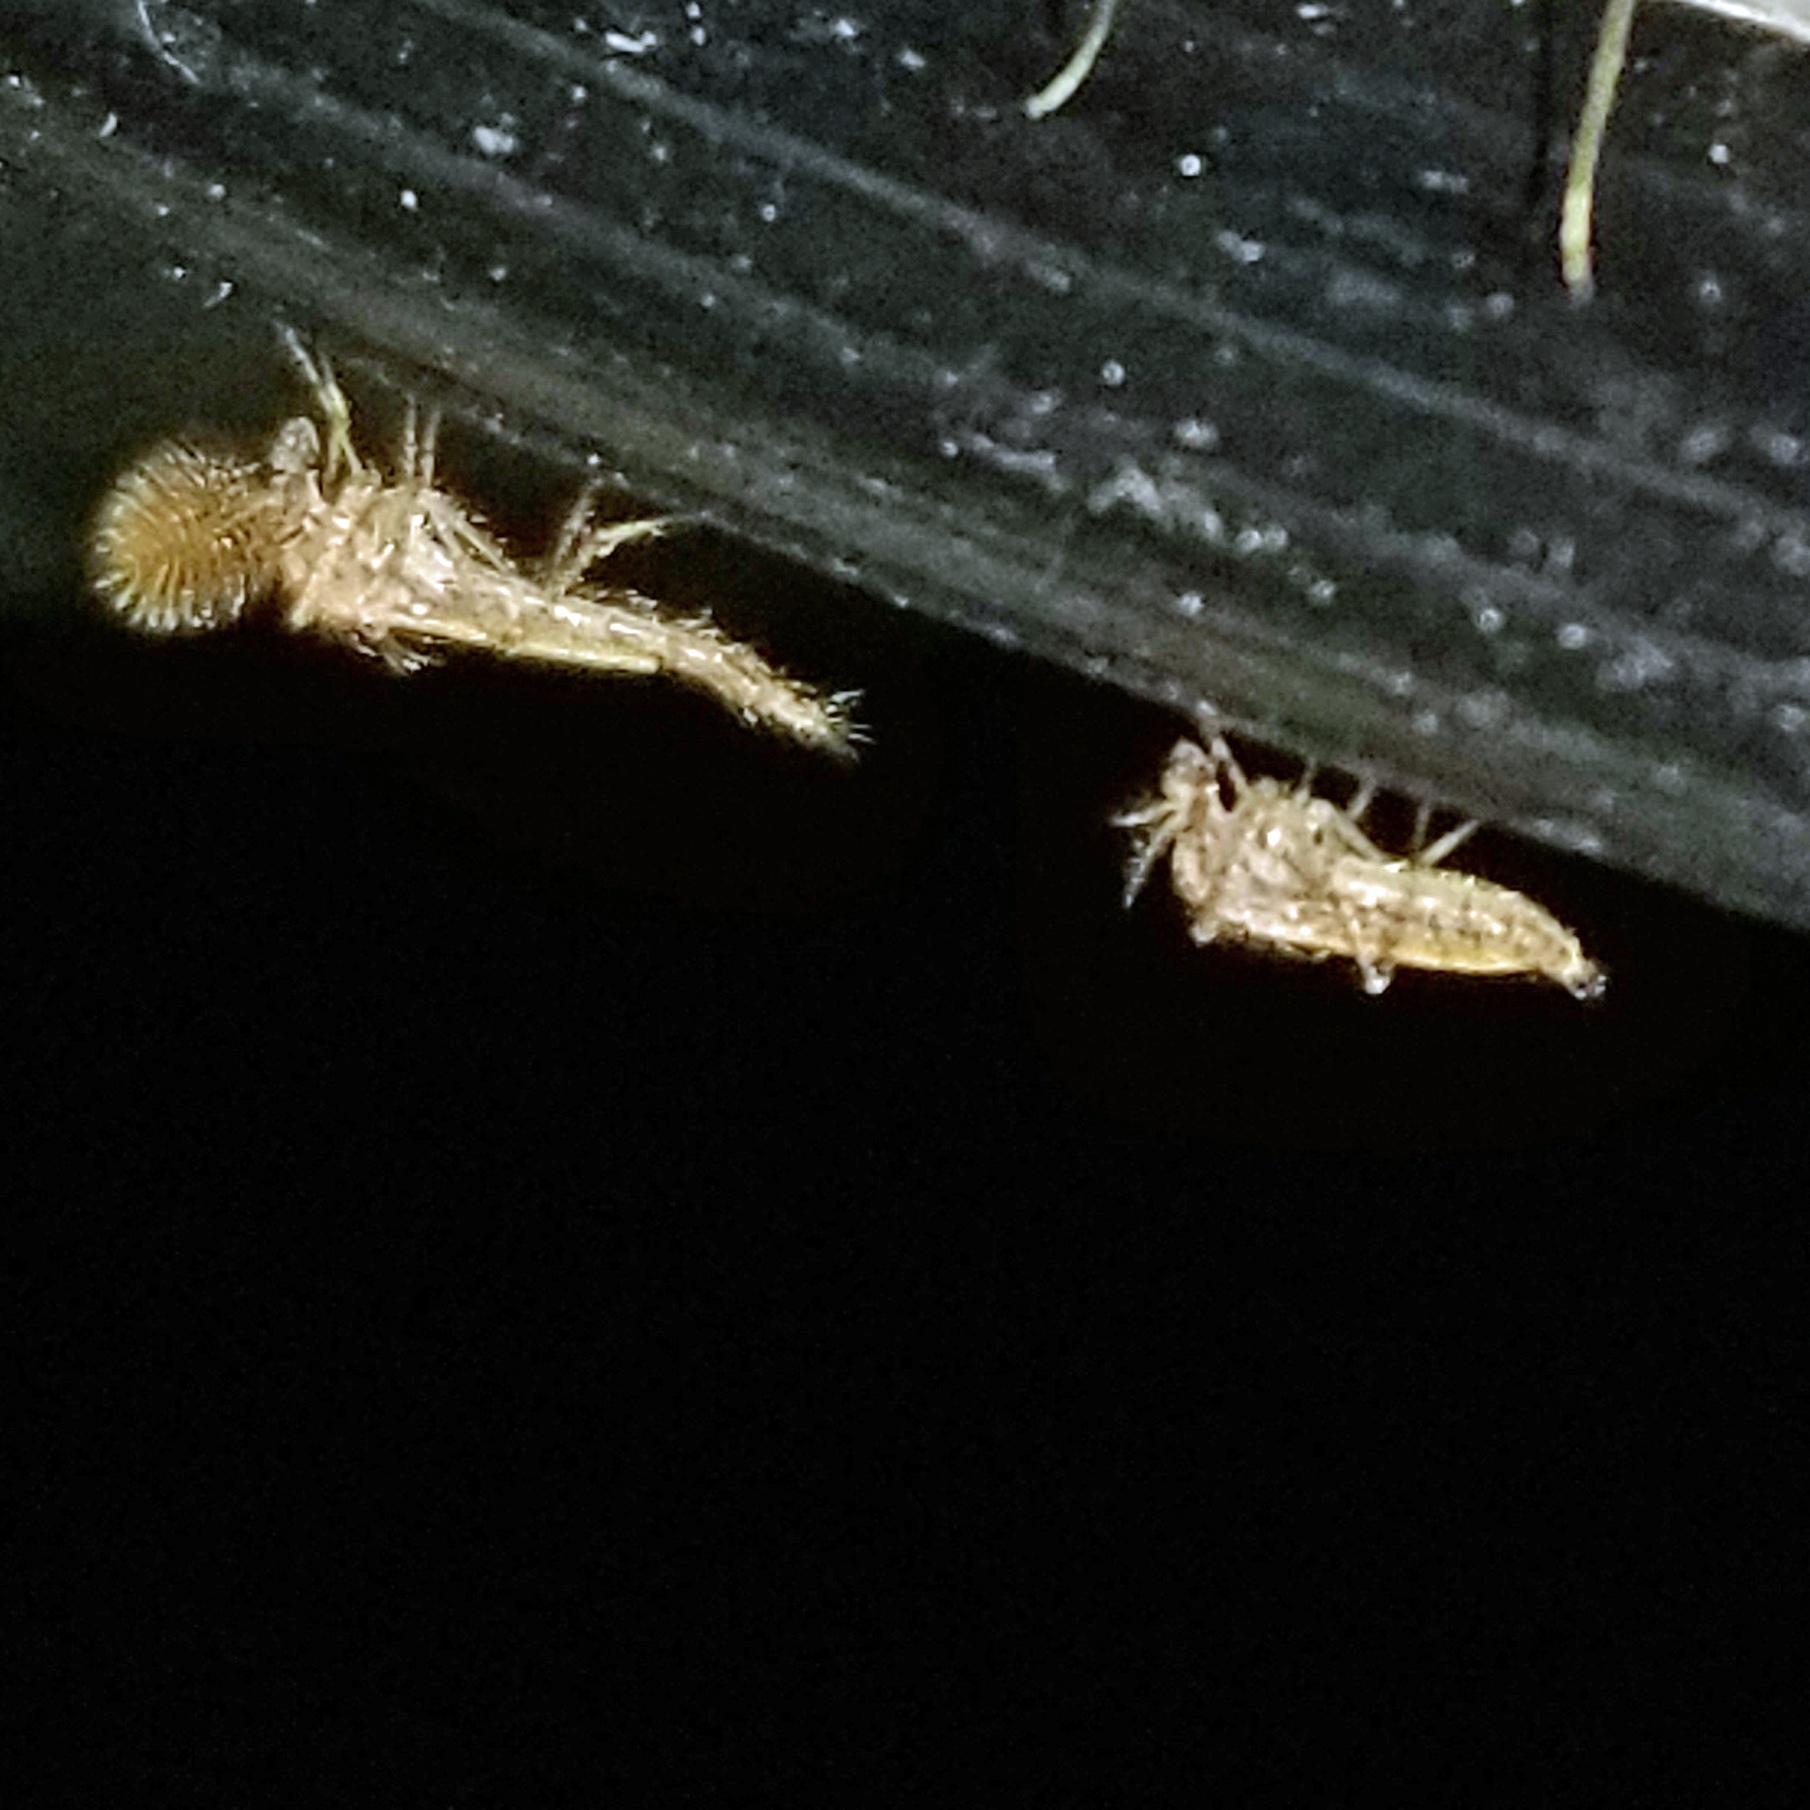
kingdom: Animalia
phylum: Arthropoda
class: Insecta
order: Diptera
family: Chaoboridae
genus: Chaoborus
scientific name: Chaoborus punctipennis
